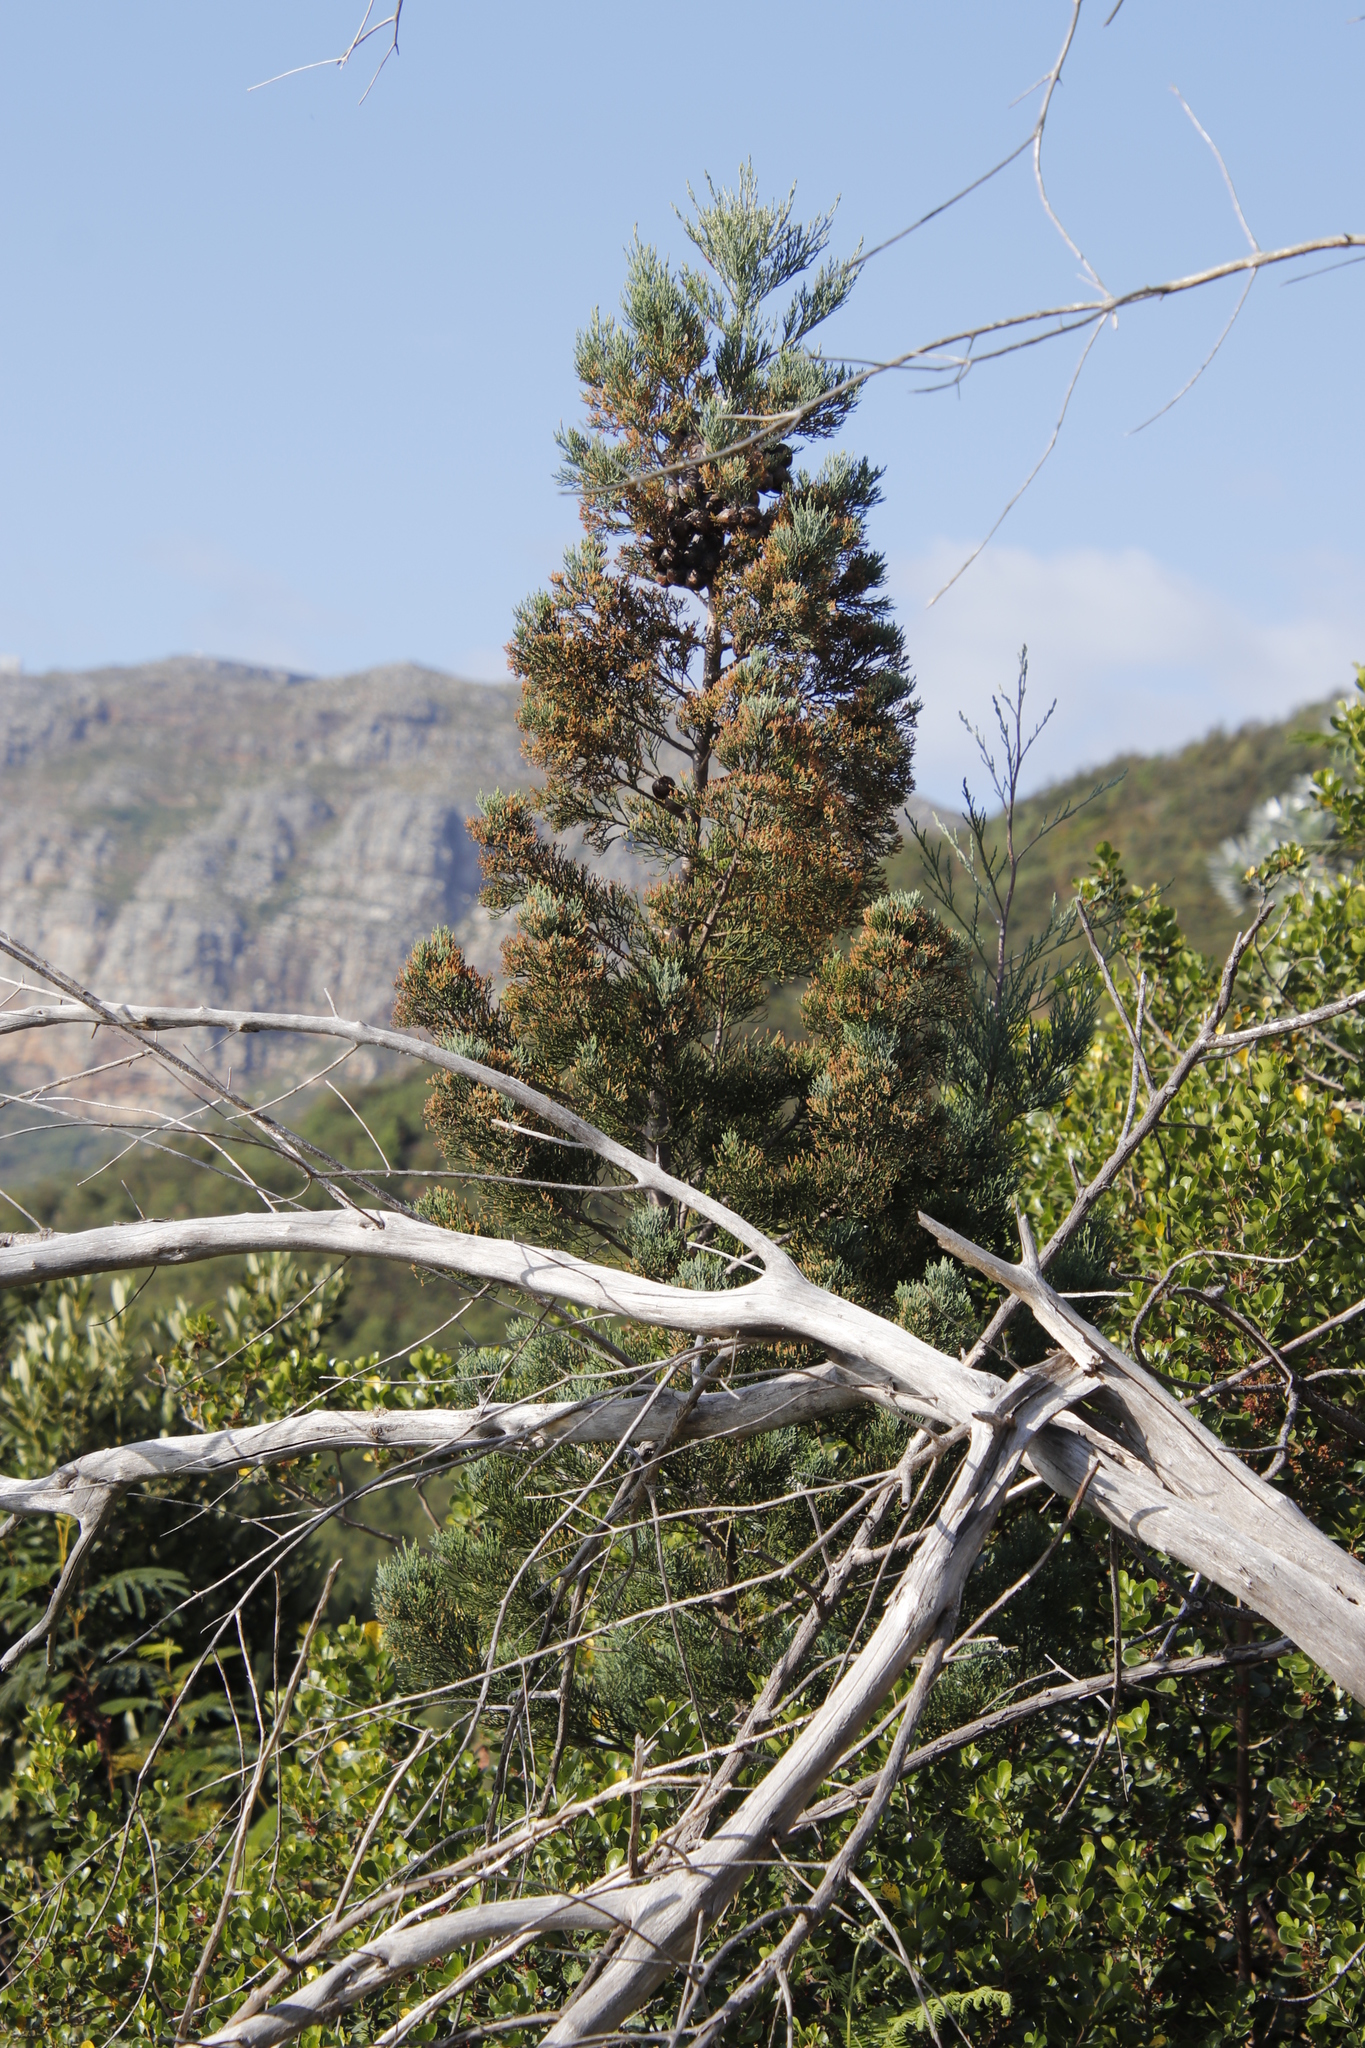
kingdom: Plantae
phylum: Tracheophyta
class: Pinopsida
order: Pinales
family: Cupressaceae
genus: Widdringtonia
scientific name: Widdringtonia nodiflora
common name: Cape cypress
